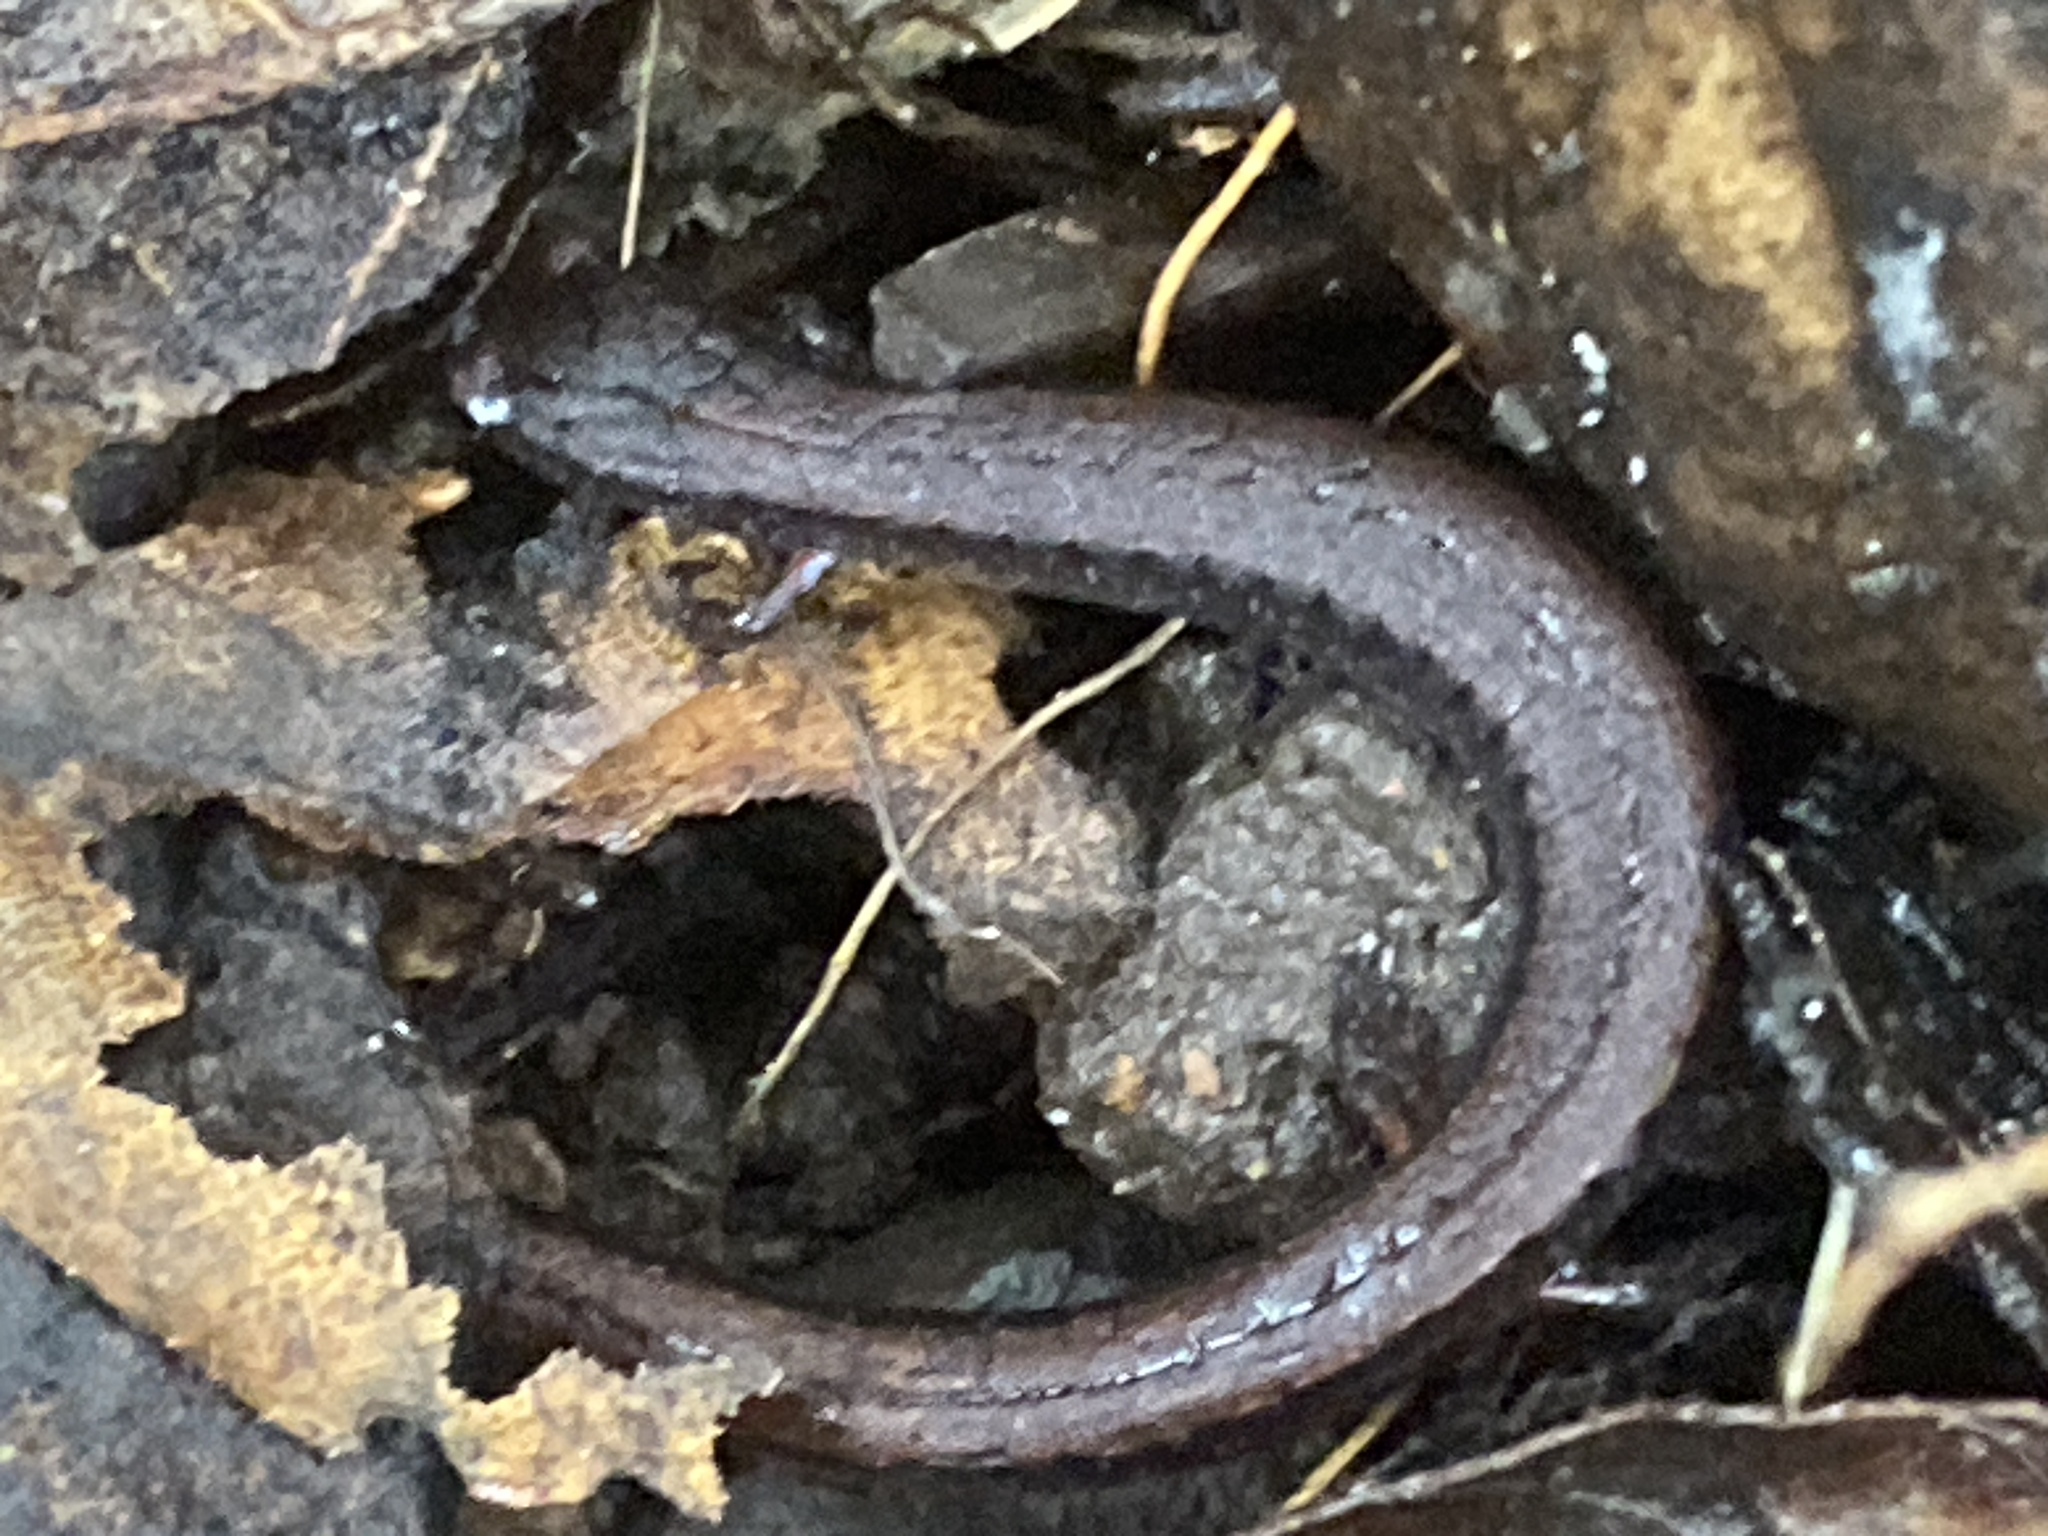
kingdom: Animalia
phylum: Chordata
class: Amphibia
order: Caudata
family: Plethodontidae
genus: Batrachoseps
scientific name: Batrachoseps attenuatus
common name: California slender salamander
